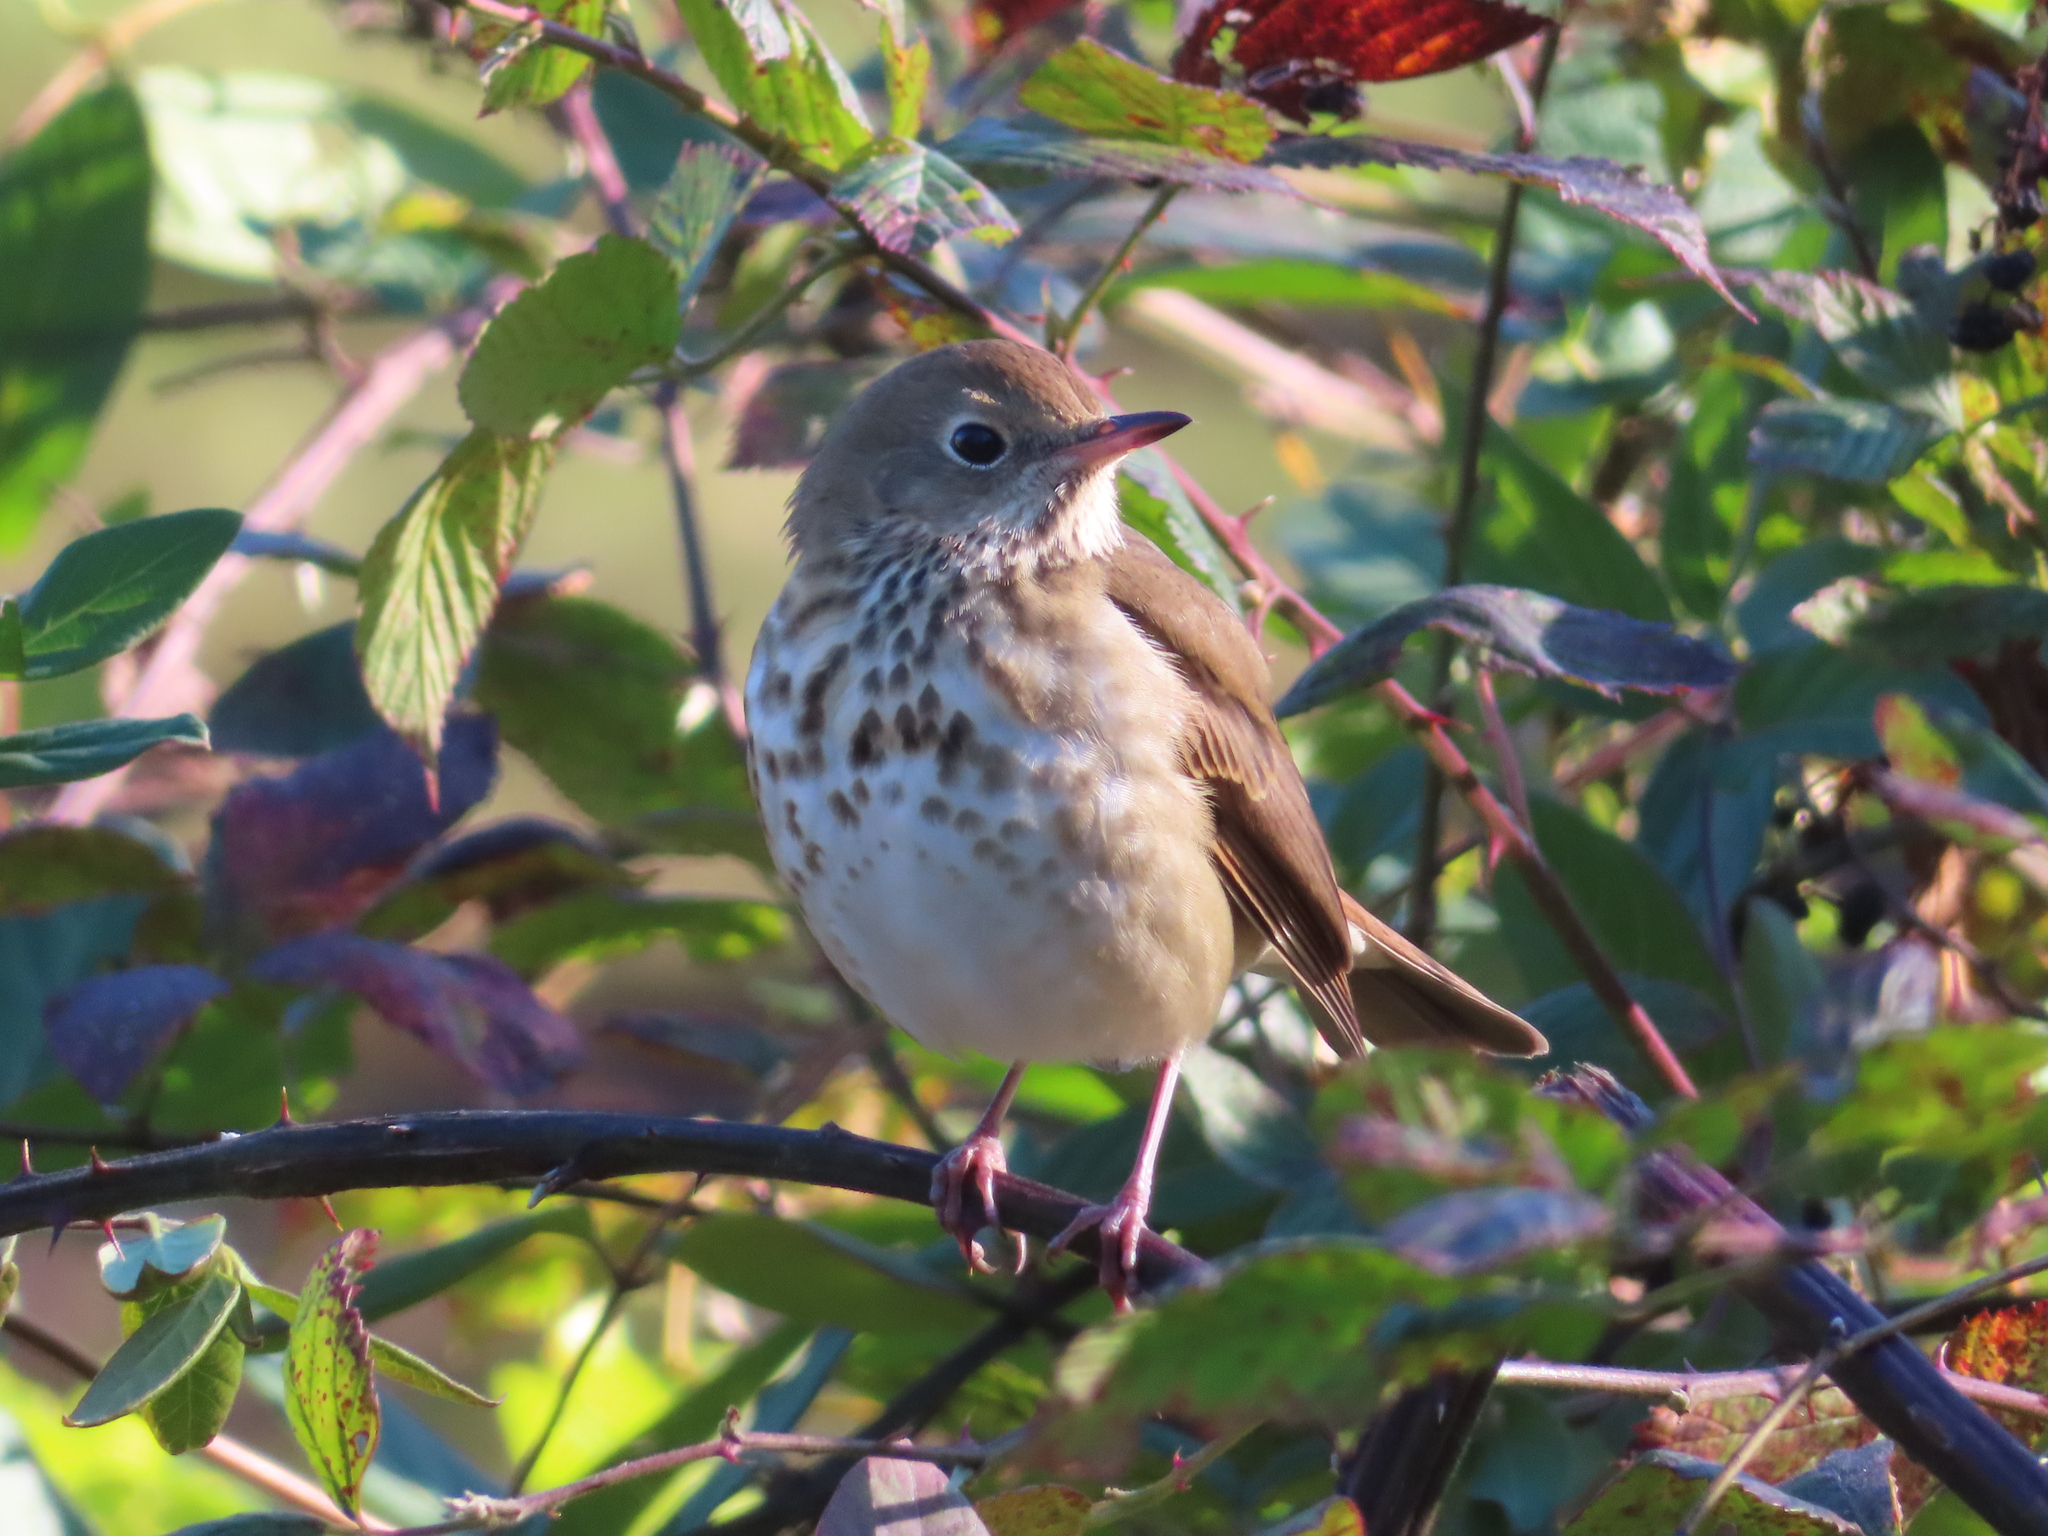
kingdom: Animalia
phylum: Chordata
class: Aves
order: Passeriformes
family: Turdidae
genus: Catharus
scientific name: Catharus guttatus
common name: Hermit thrush
